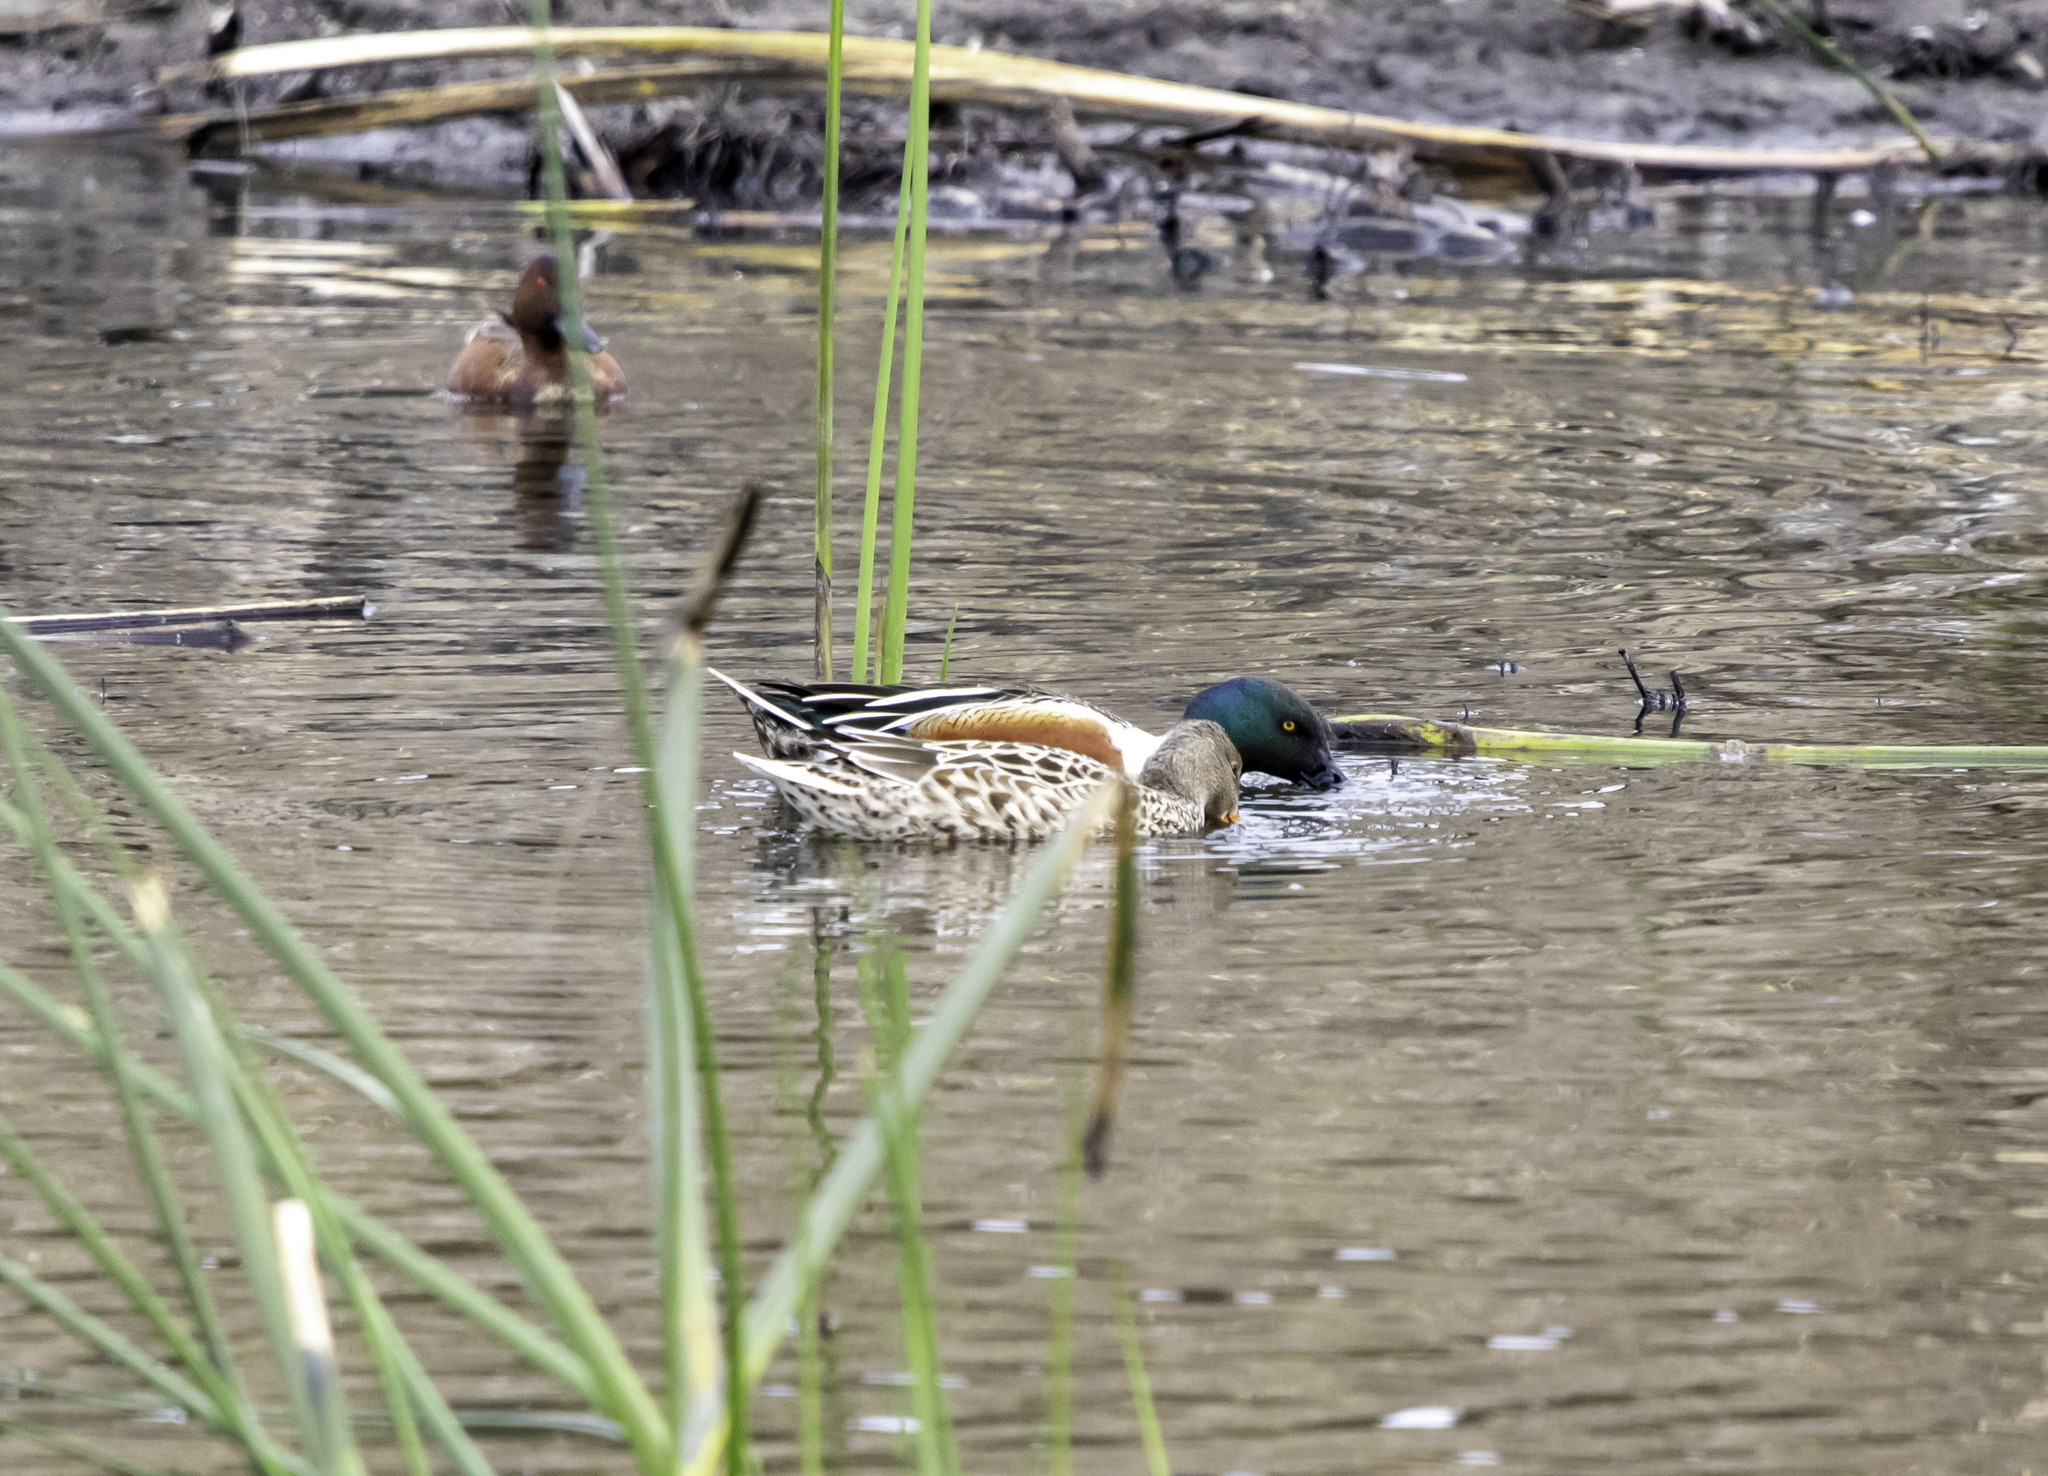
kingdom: Animalia
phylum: Chordata
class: Aves
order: Anseriformes
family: Anatidae
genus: Spatula
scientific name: Spatula clypeata
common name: Northern shoveler
